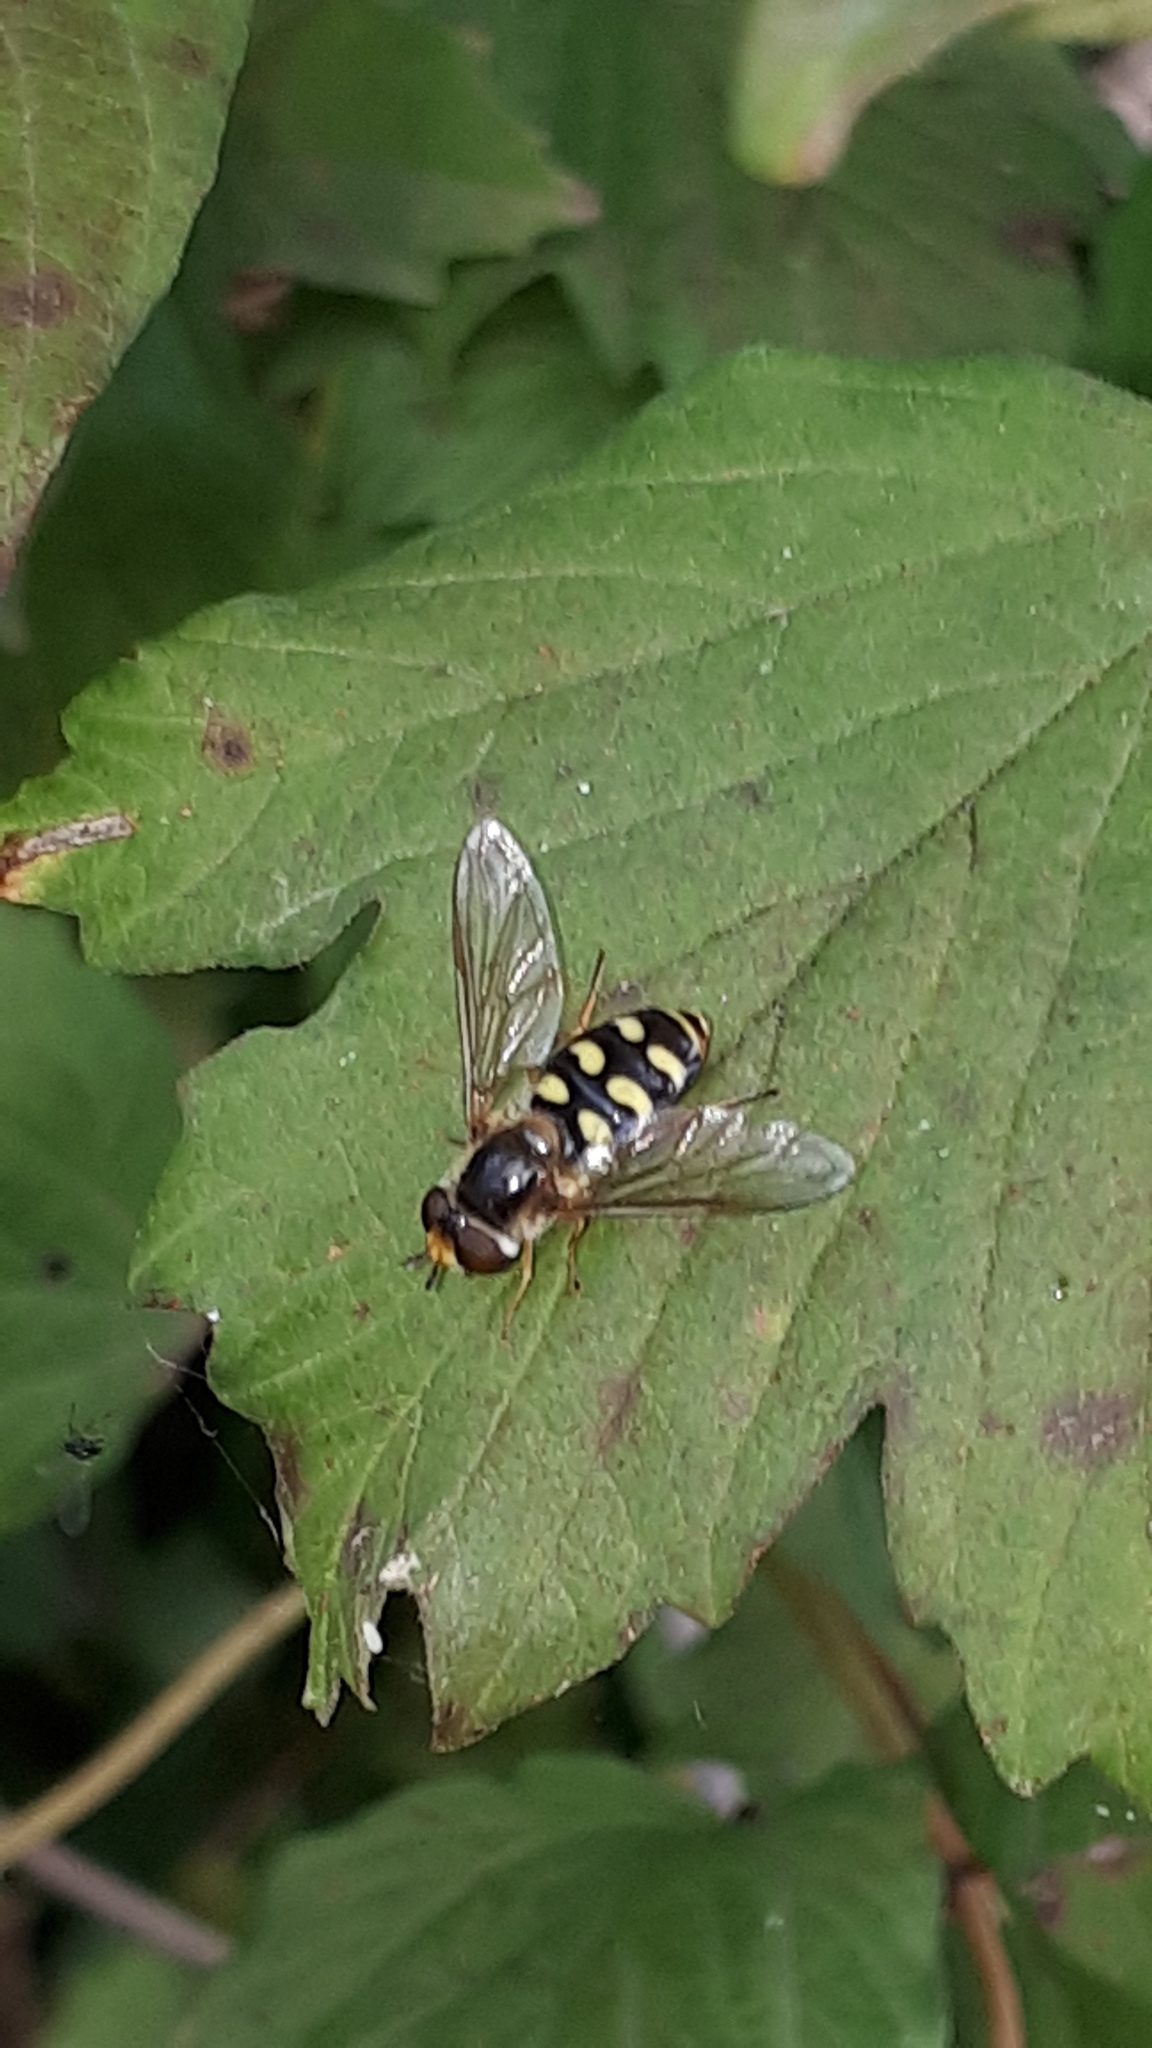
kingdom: Animalia
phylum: Arthropoda
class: Insecta
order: Diptera
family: Syrphidae
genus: Eupeodes
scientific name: Eupeodes luniger
